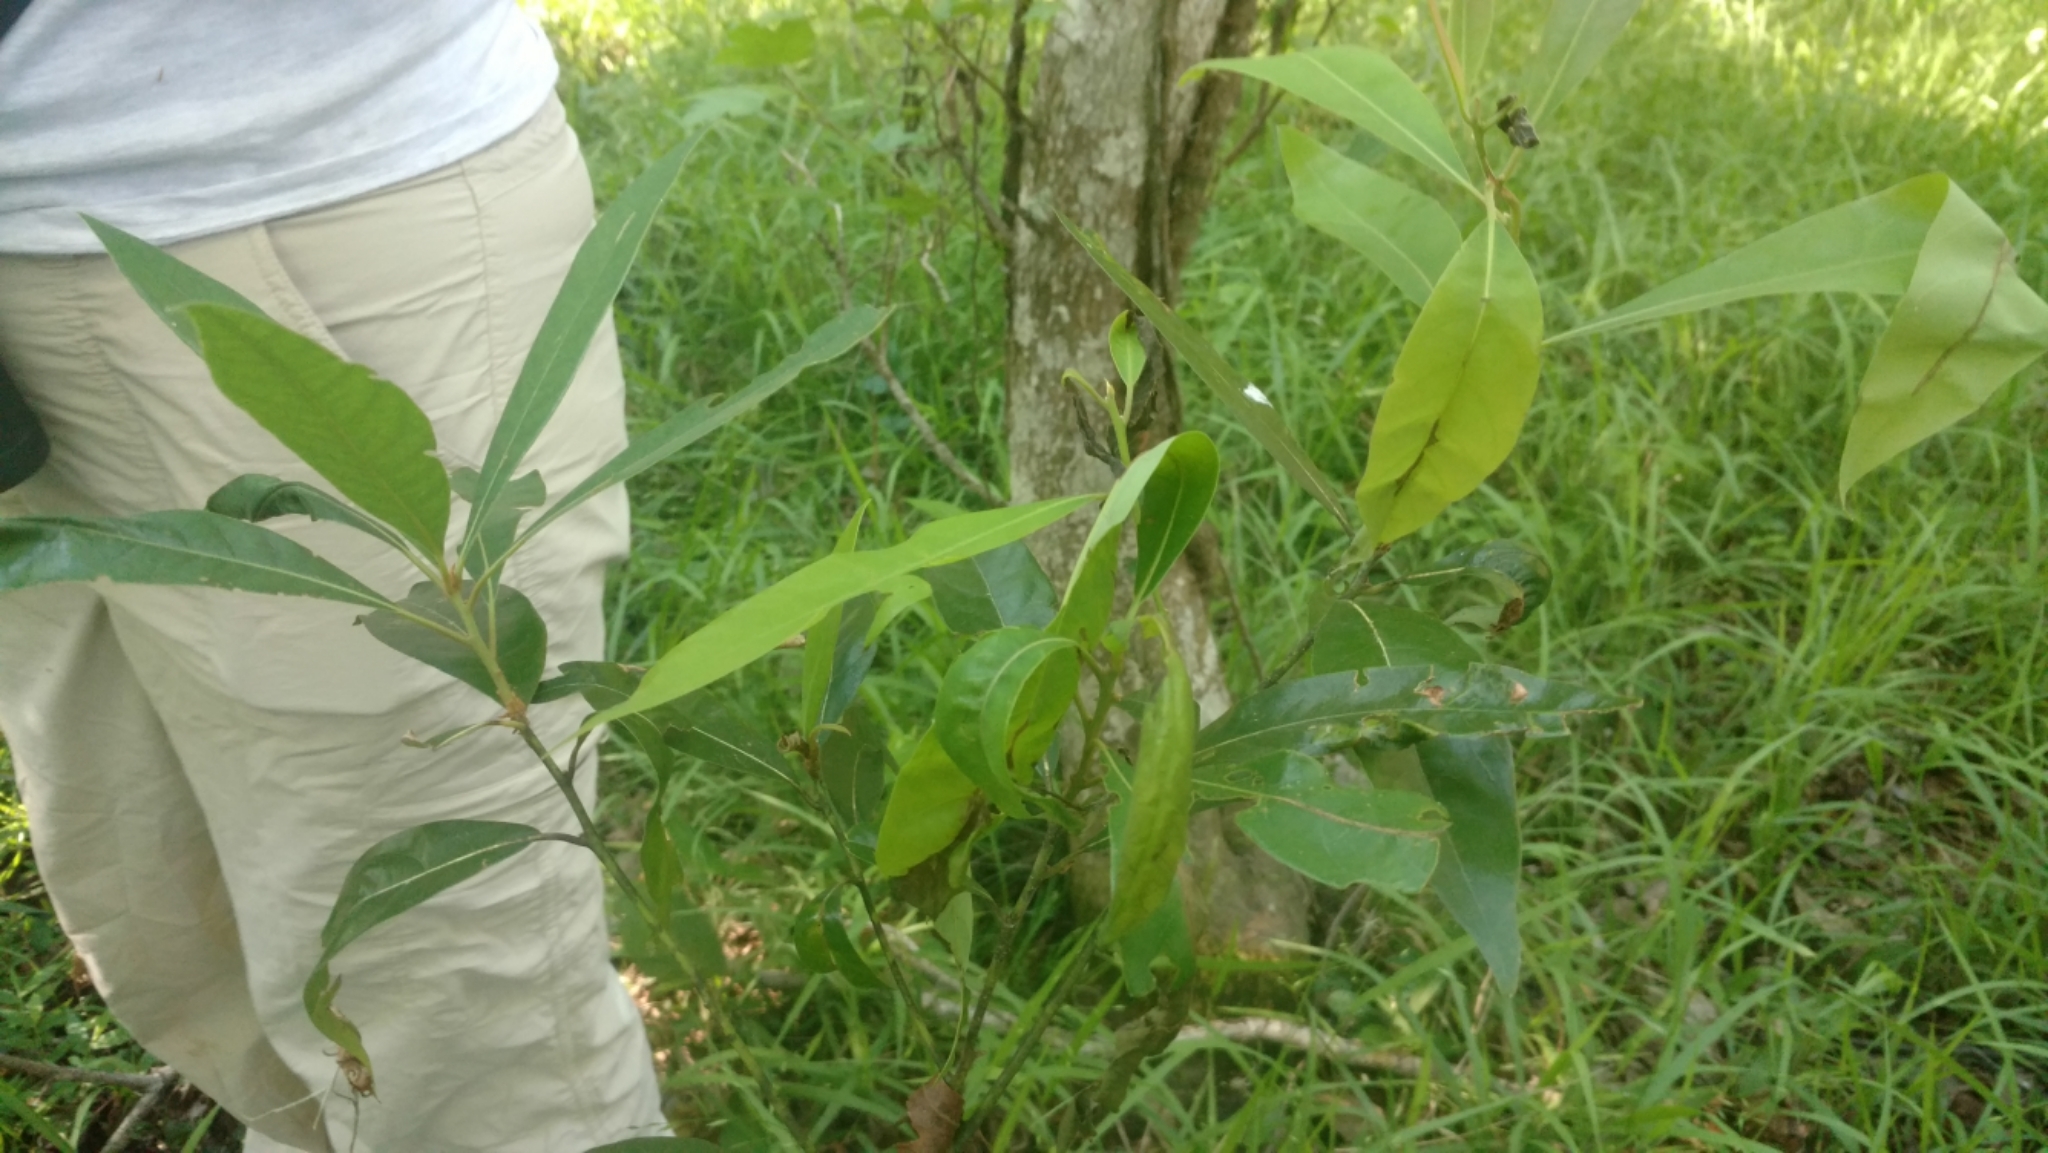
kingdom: Plantae
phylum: Tracheophyta
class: Magnoliopsida
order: Laurales
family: Lauraceae
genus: Persea
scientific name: Persea palustris
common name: Swampbay
